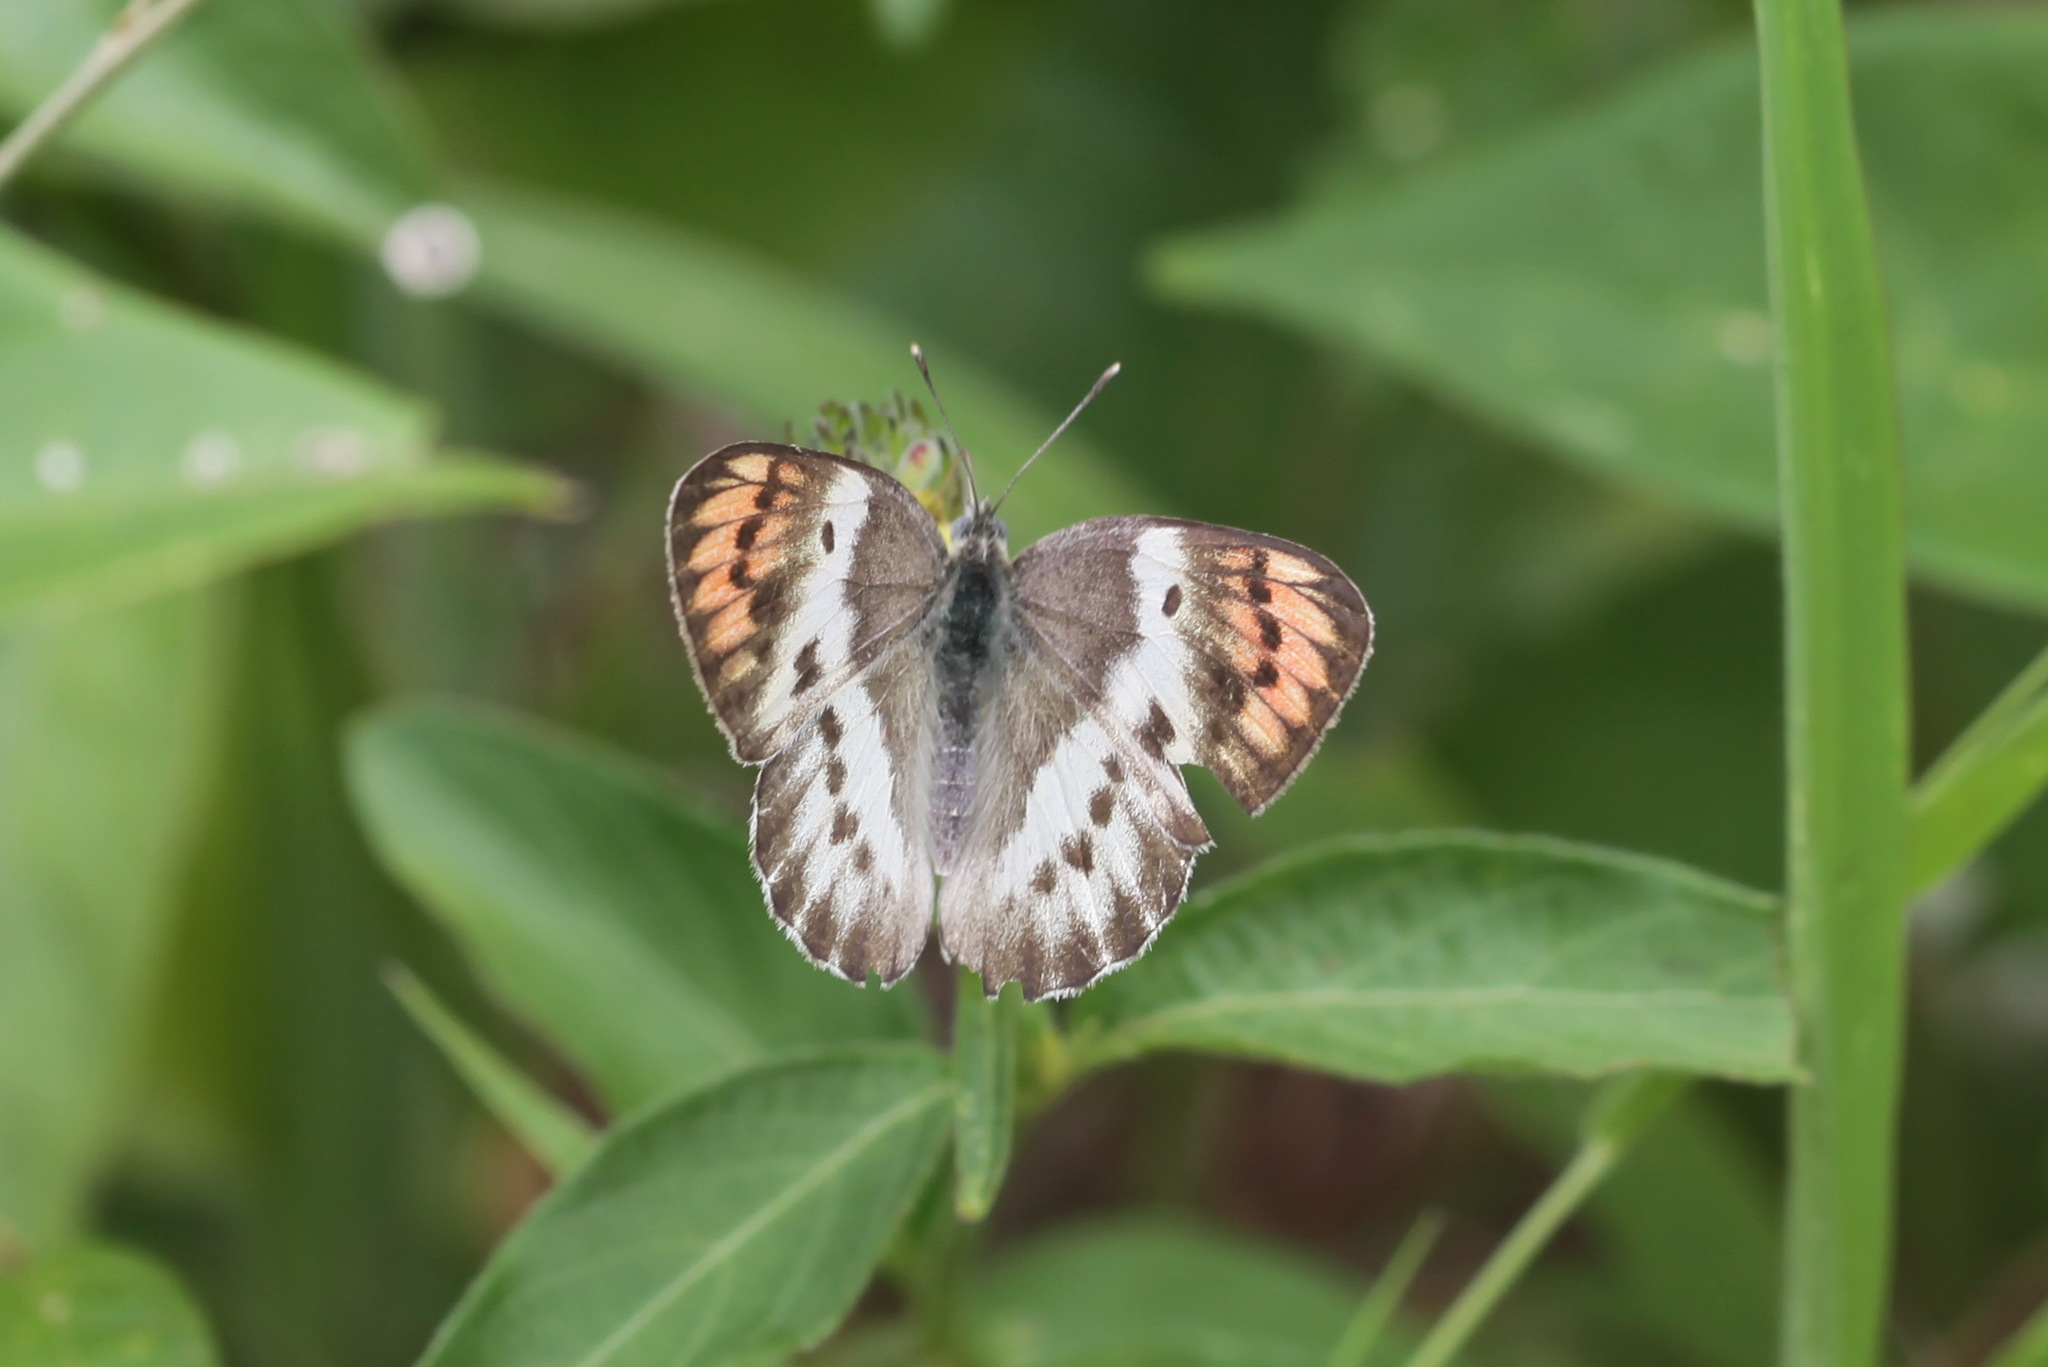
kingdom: Animalia
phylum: Arthropoda
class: Insecta
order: Lepidoptera
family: Pieridae
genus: Colotis
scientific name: Colotis annae
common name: Scarlet tip
